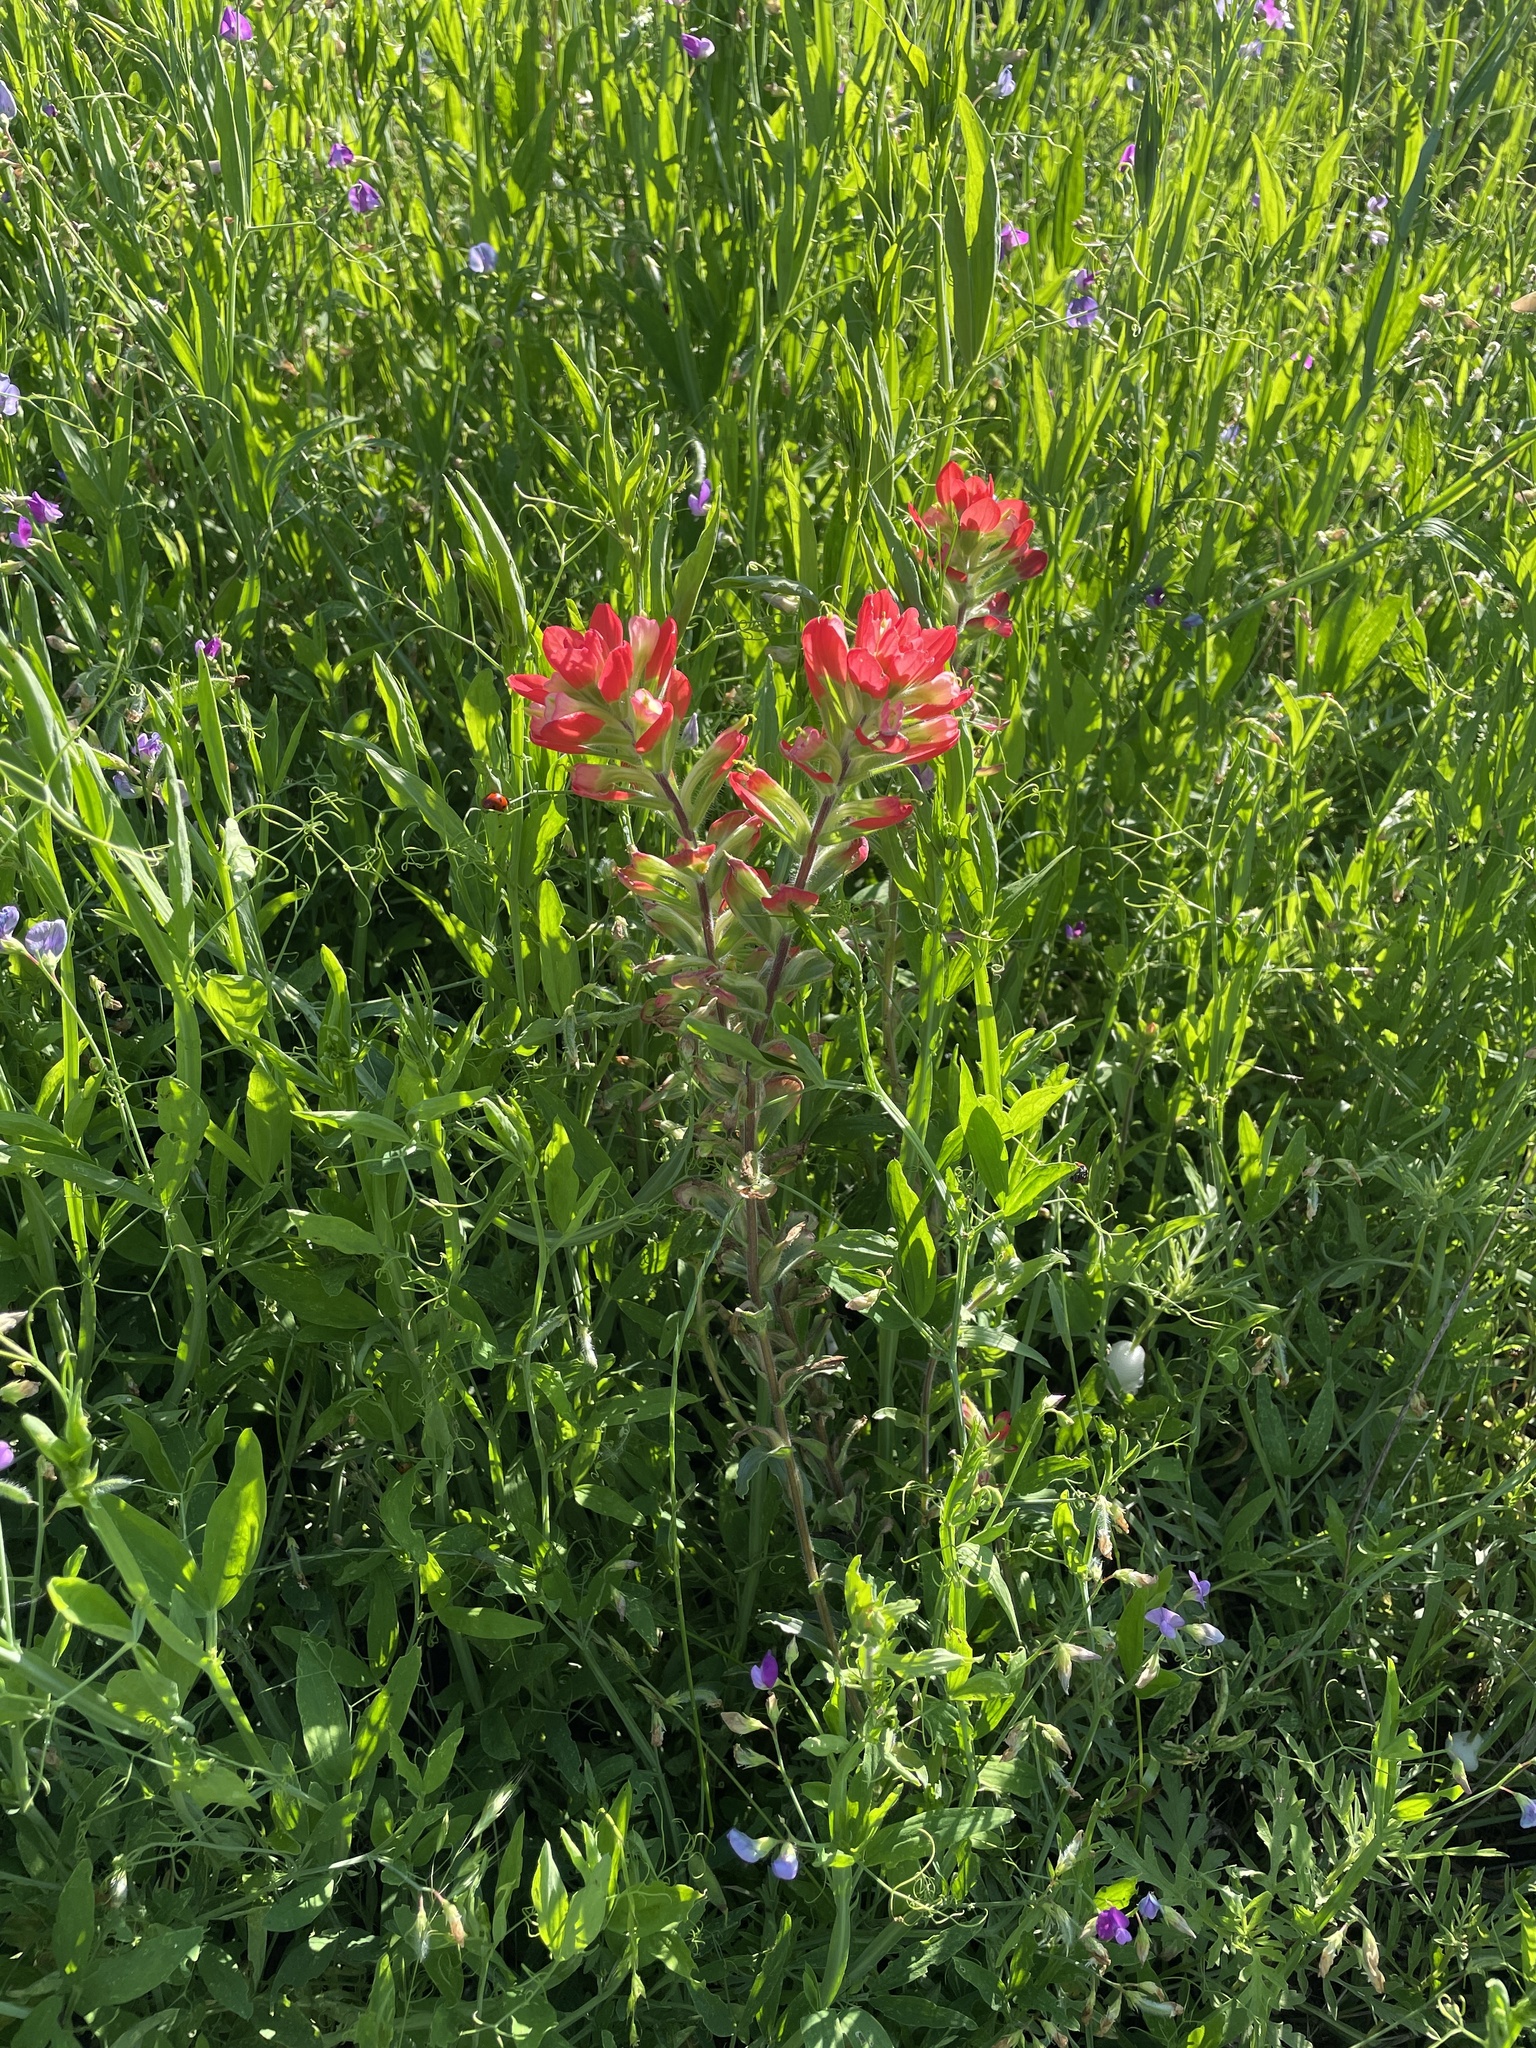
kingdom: Plantae
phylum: Tracheophyta
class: Magnoliopsida
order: Lamiales
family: Orobanchaceae
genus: Castilleja
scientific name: Castilleja indivisa
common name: Texas paintbrush
